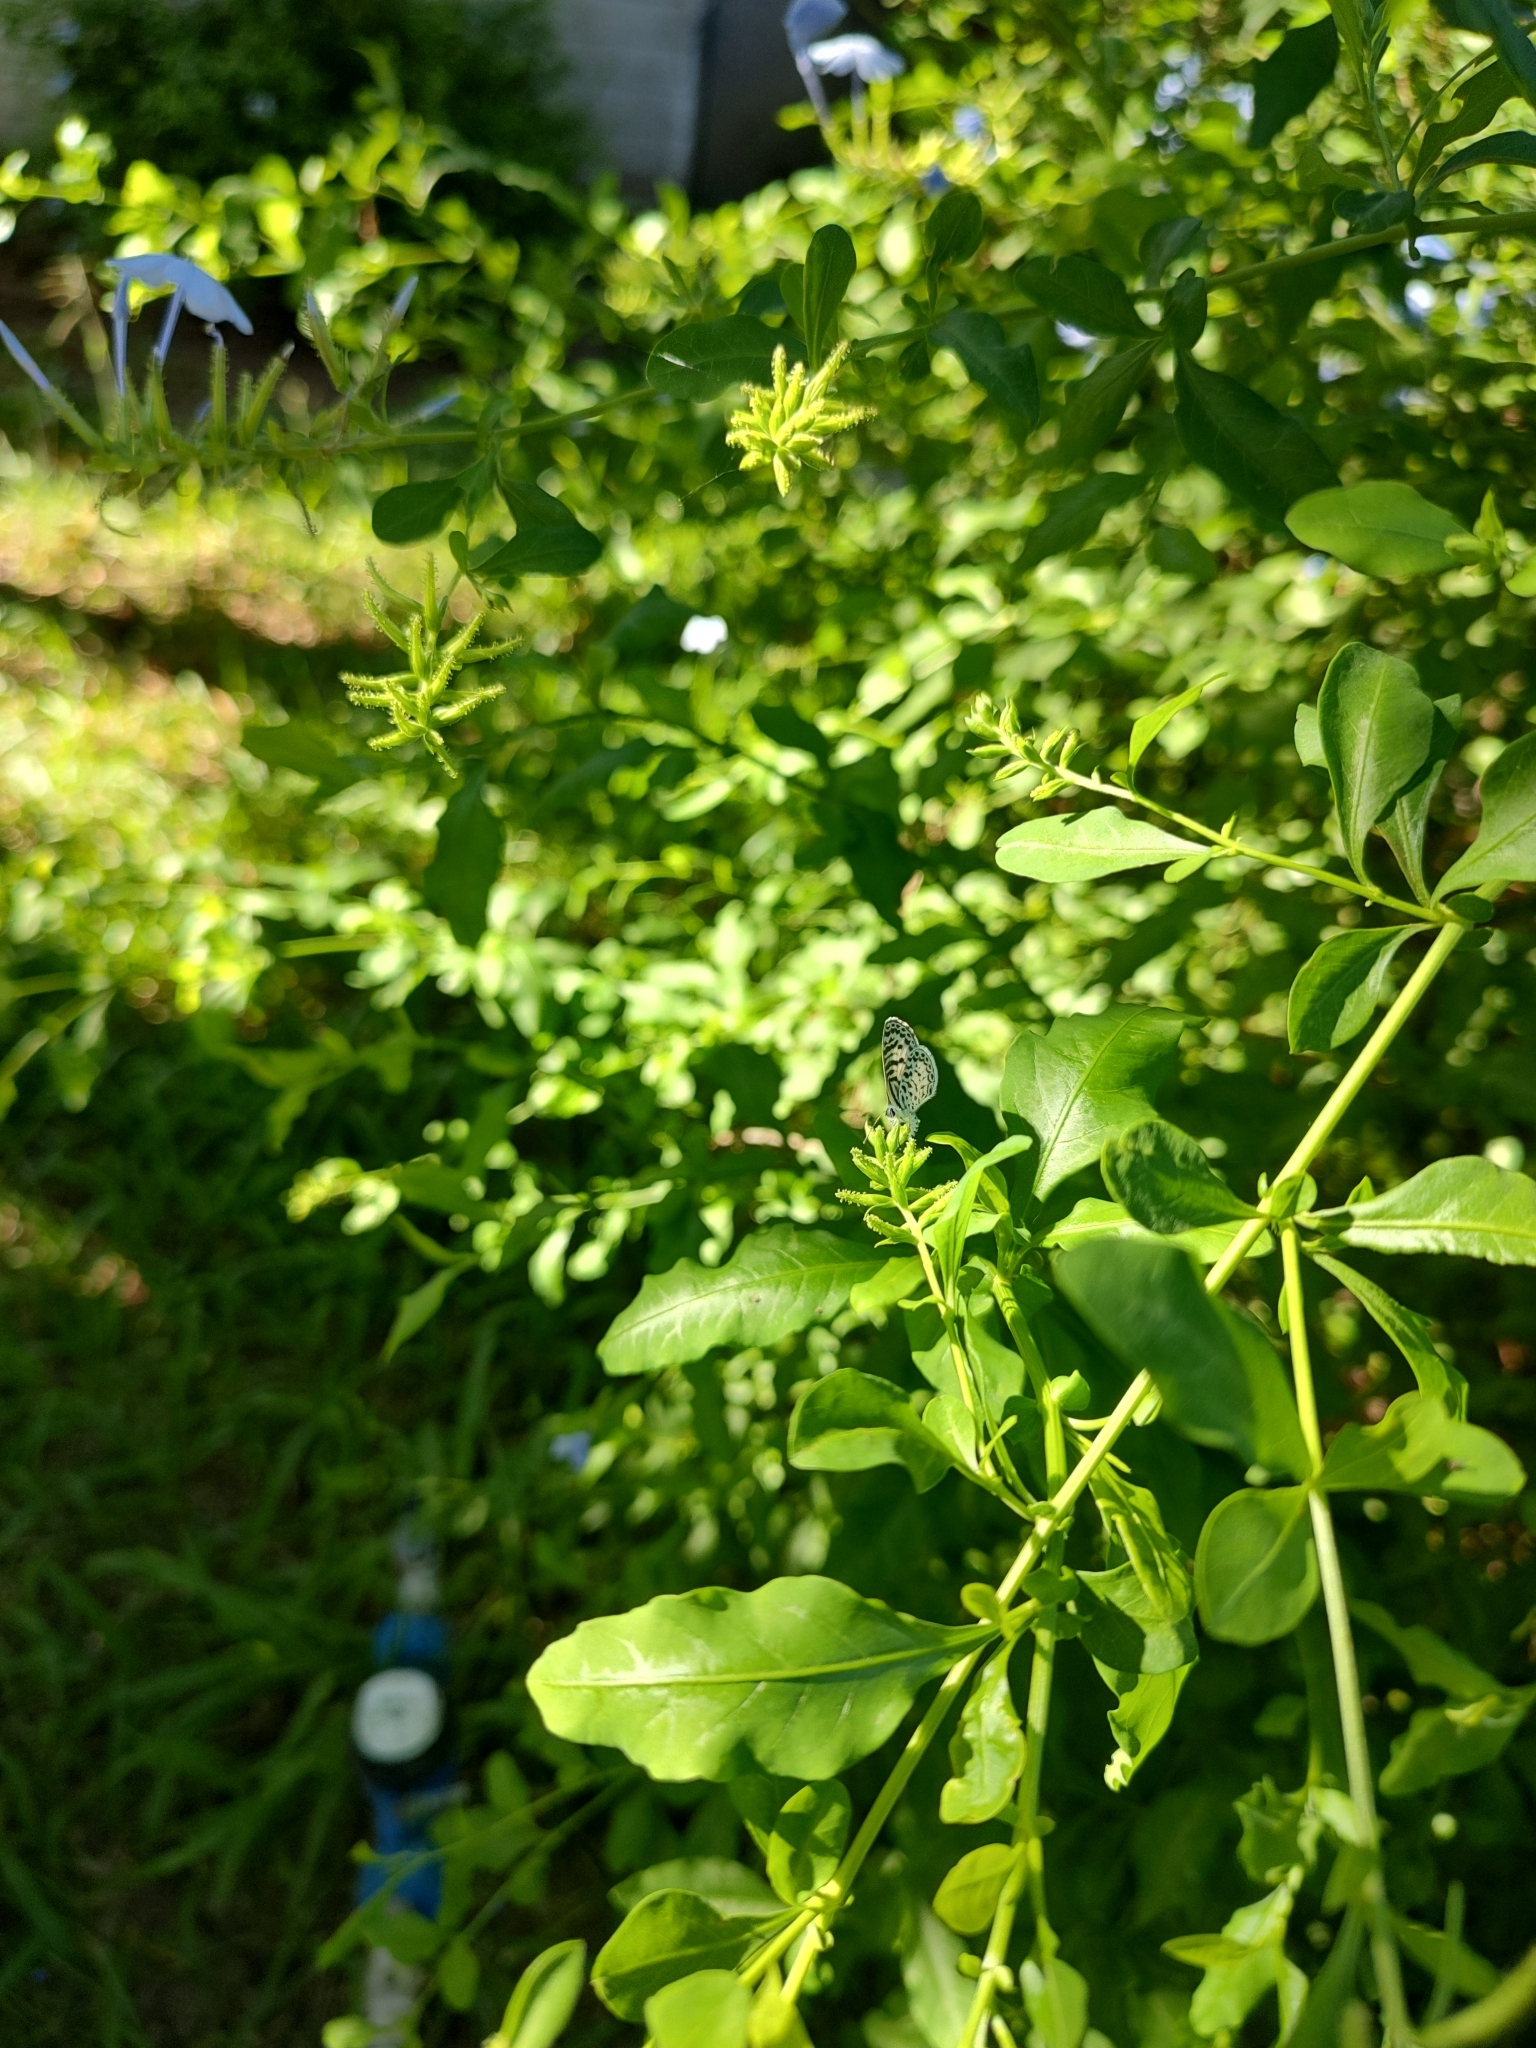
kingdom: Animalia
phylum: Arthropoda
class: Insecta
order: Lepidoptera
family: Lycaenidae
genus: Leptotes
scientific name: Leptotes cassius
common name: Cassius blue
